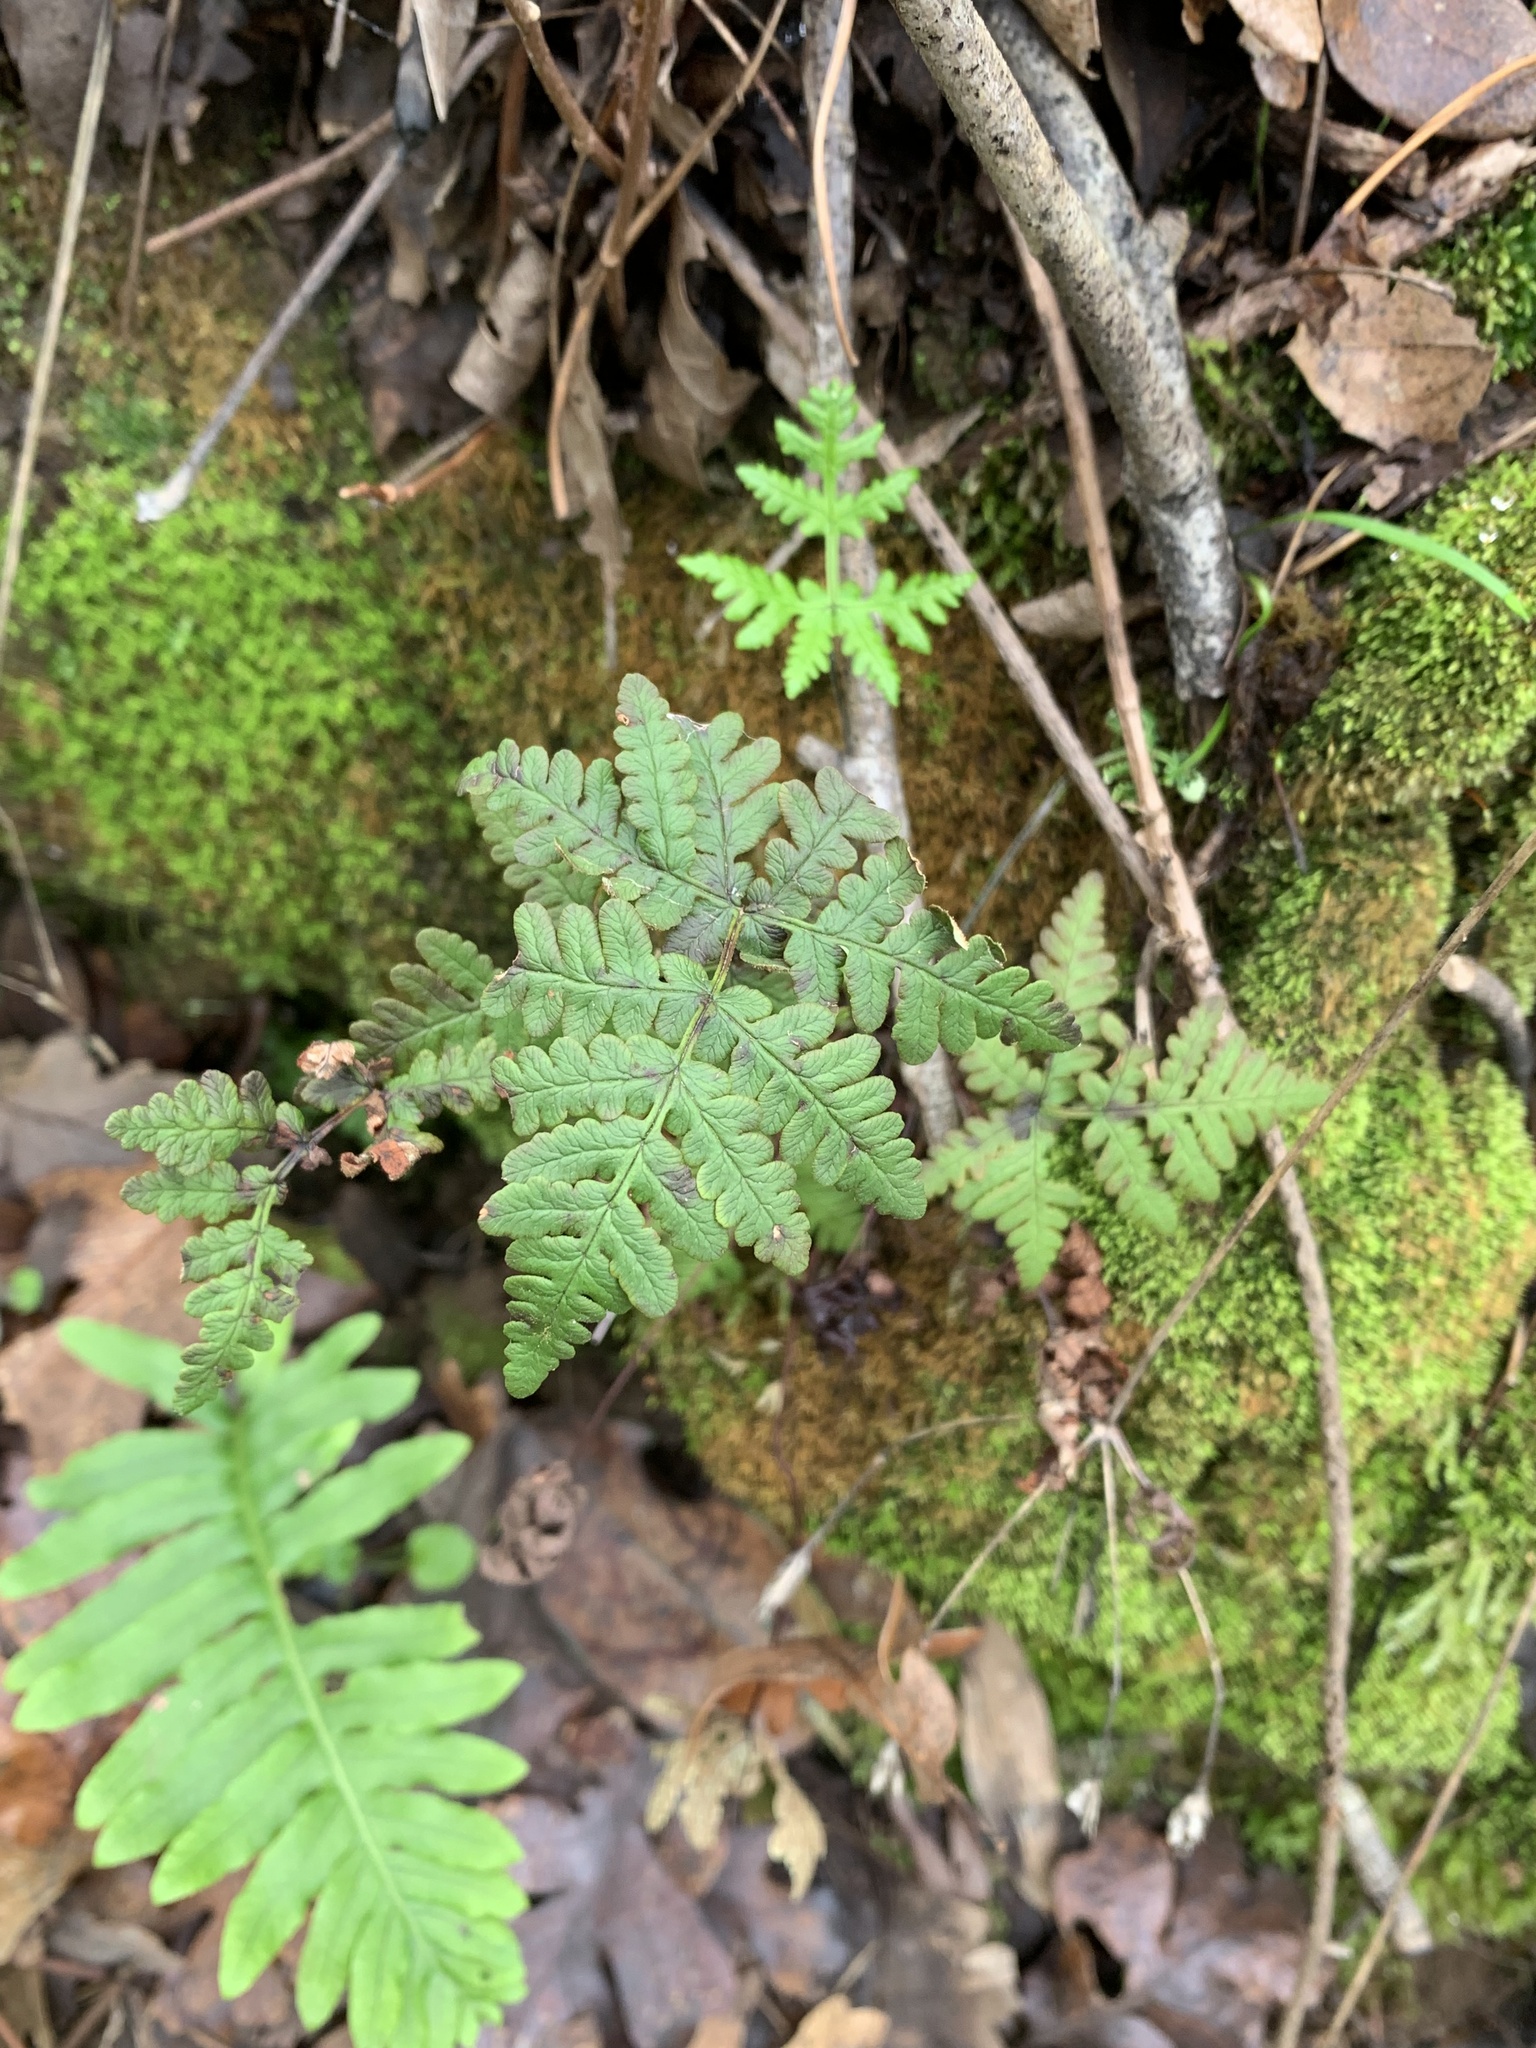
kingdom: Plantae
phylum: Tracheophyta
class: Polypodiopsida
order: Polypodiales
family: Pteridaceae
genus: Pentagramma
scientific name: Pentagramma triangularis
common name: Gold fern
